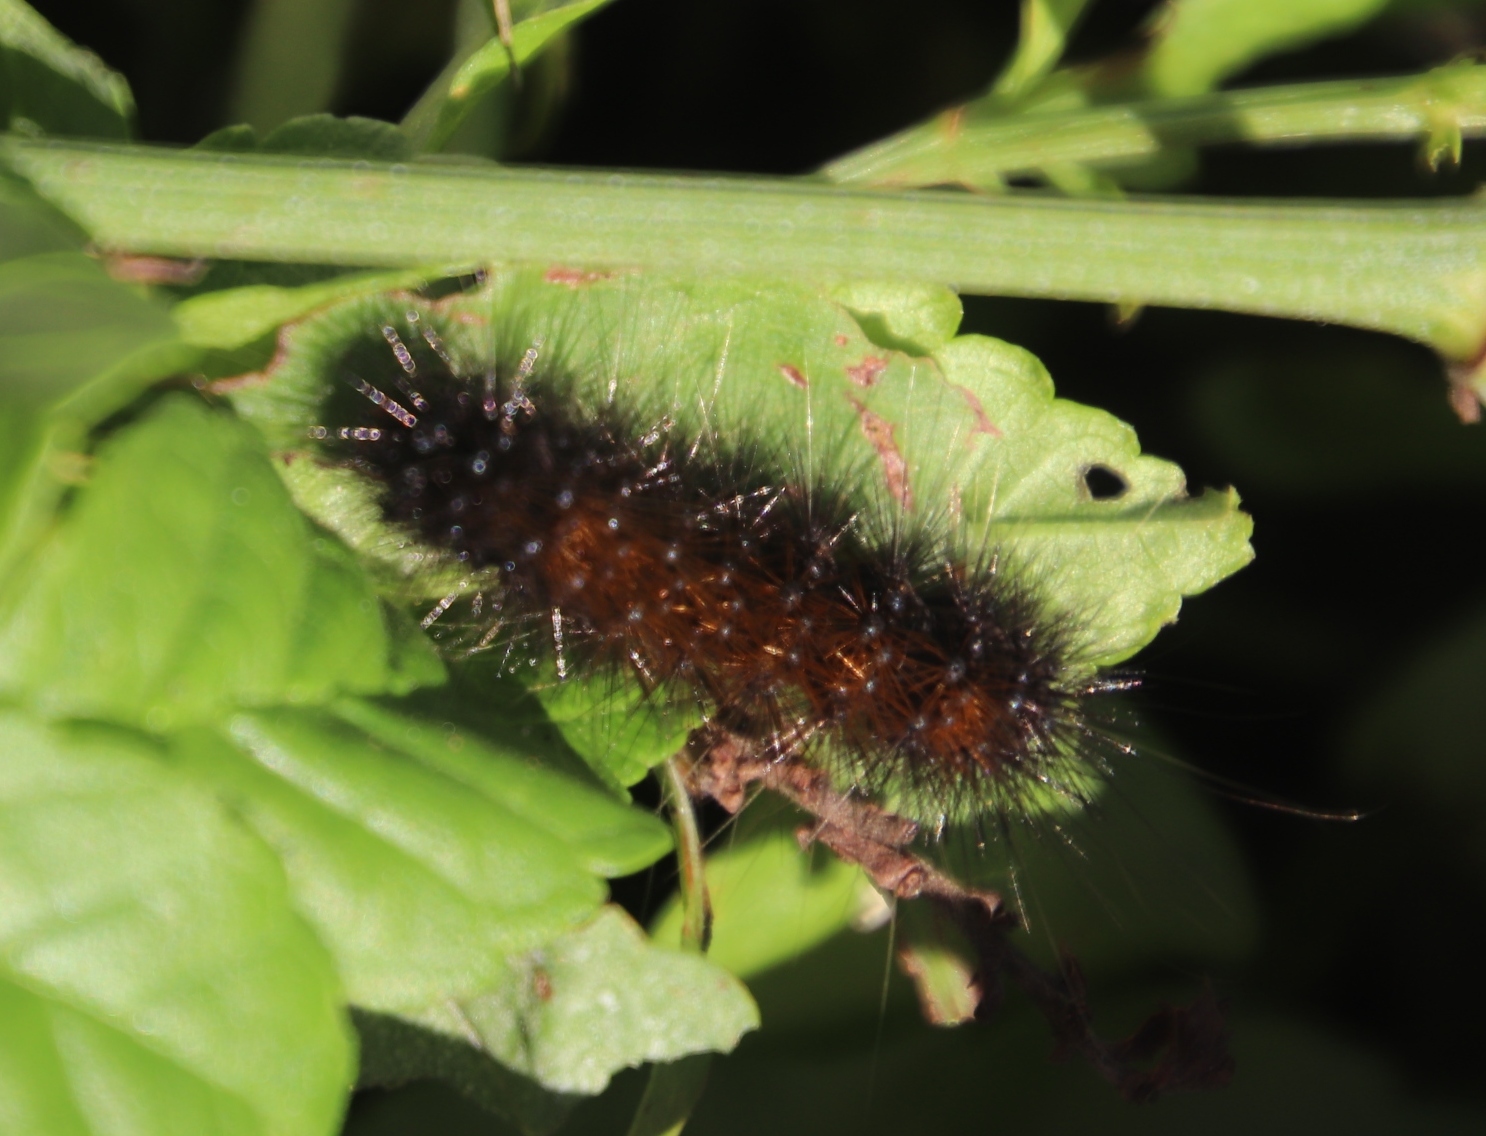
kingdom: Animalia
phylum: Arthropoda
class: Insecta
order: Lepidoptera
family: Erebidae
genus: Rhodogastria
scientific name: Rhodogastria amasis
